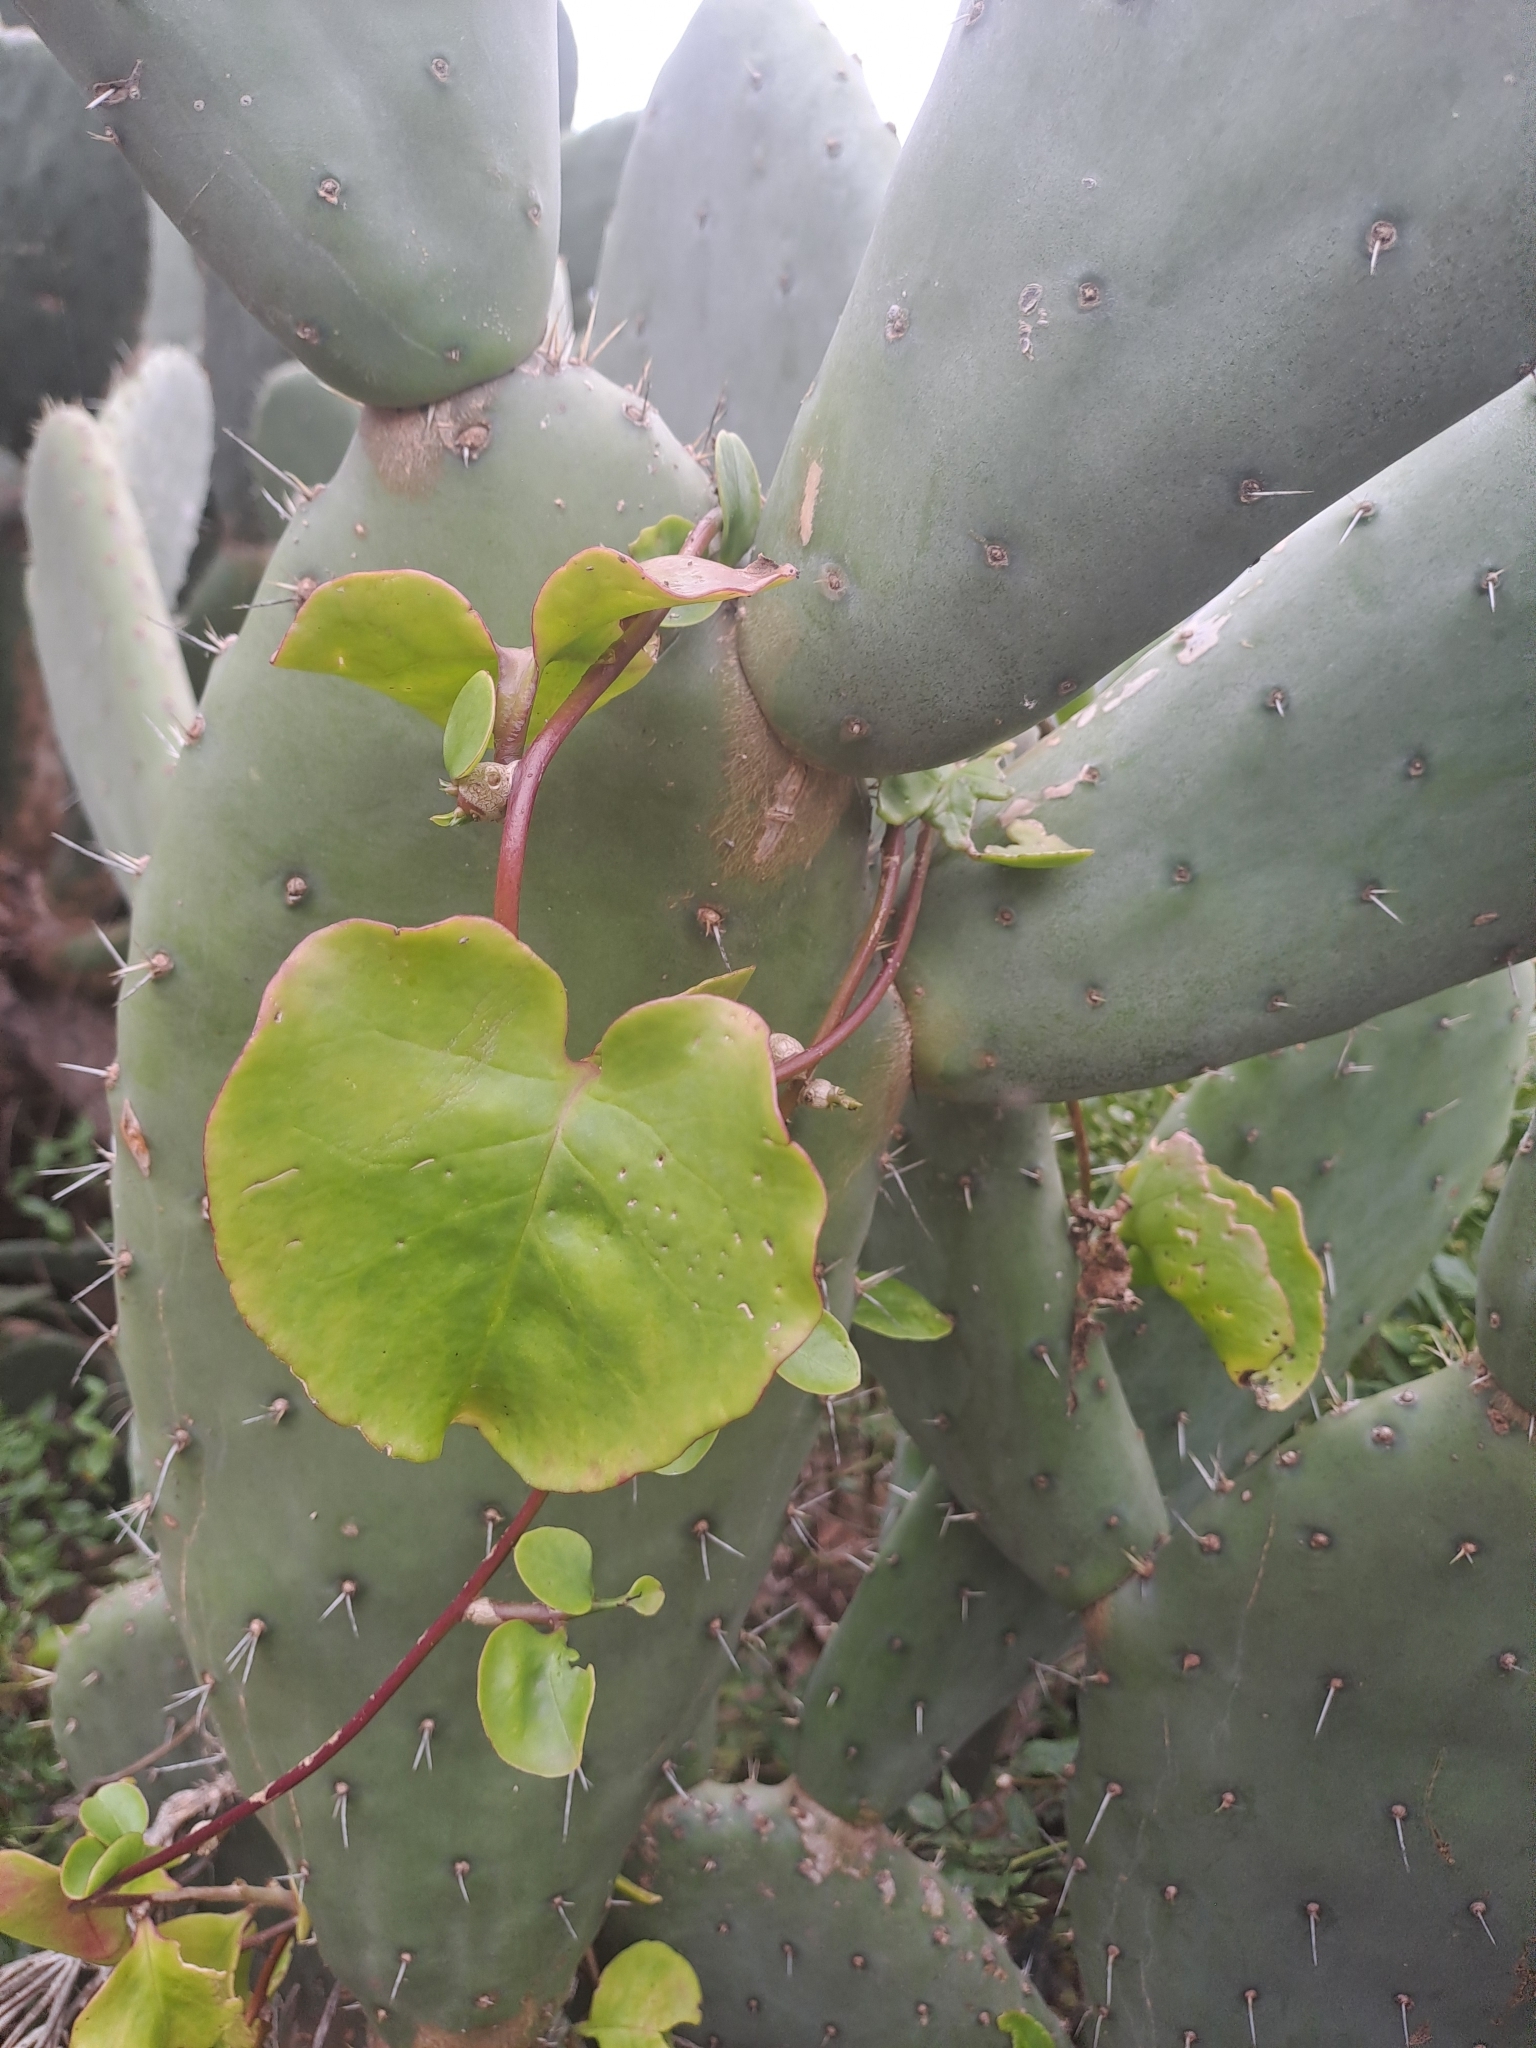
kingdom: Plantae
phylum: Tracheophyta
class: Magnoliopsida
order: Caryophyllales
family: Basellaceae
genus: Anredera
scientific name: Anredera cordifolia
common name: Heartleaf madeiravine
